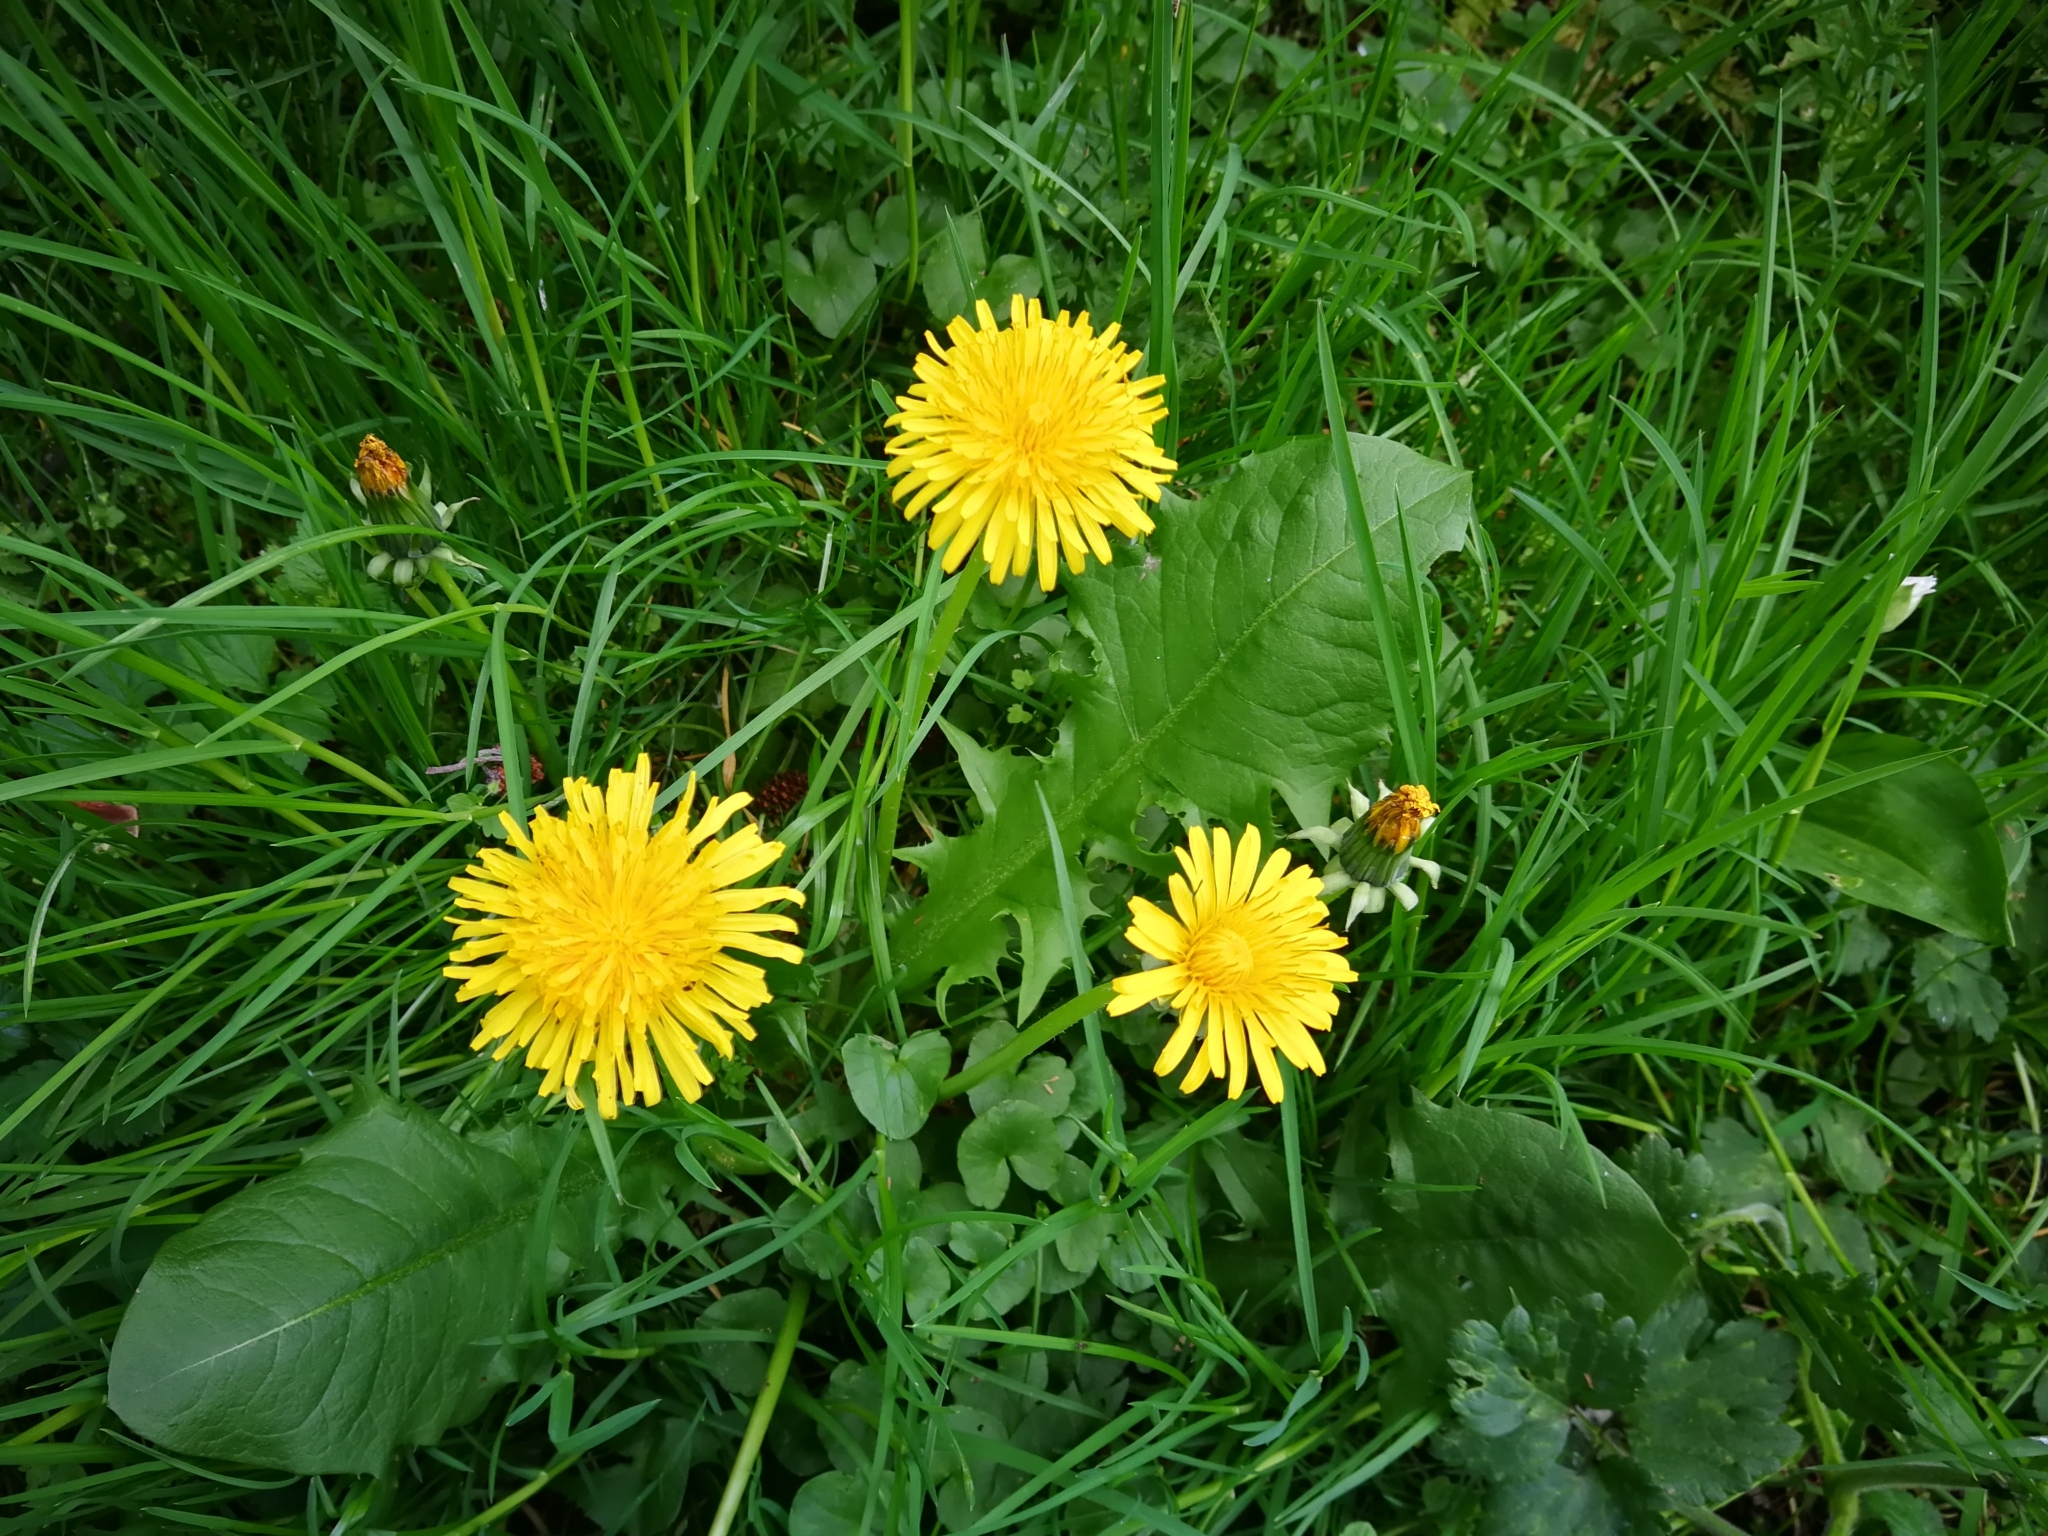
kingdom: Plantae
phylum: Tracheophyta
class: Magnoliopsida
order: Asterales
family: Asteraceae
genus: Taraxacum
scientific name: Taraxacum officinale
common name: Common dandelion
